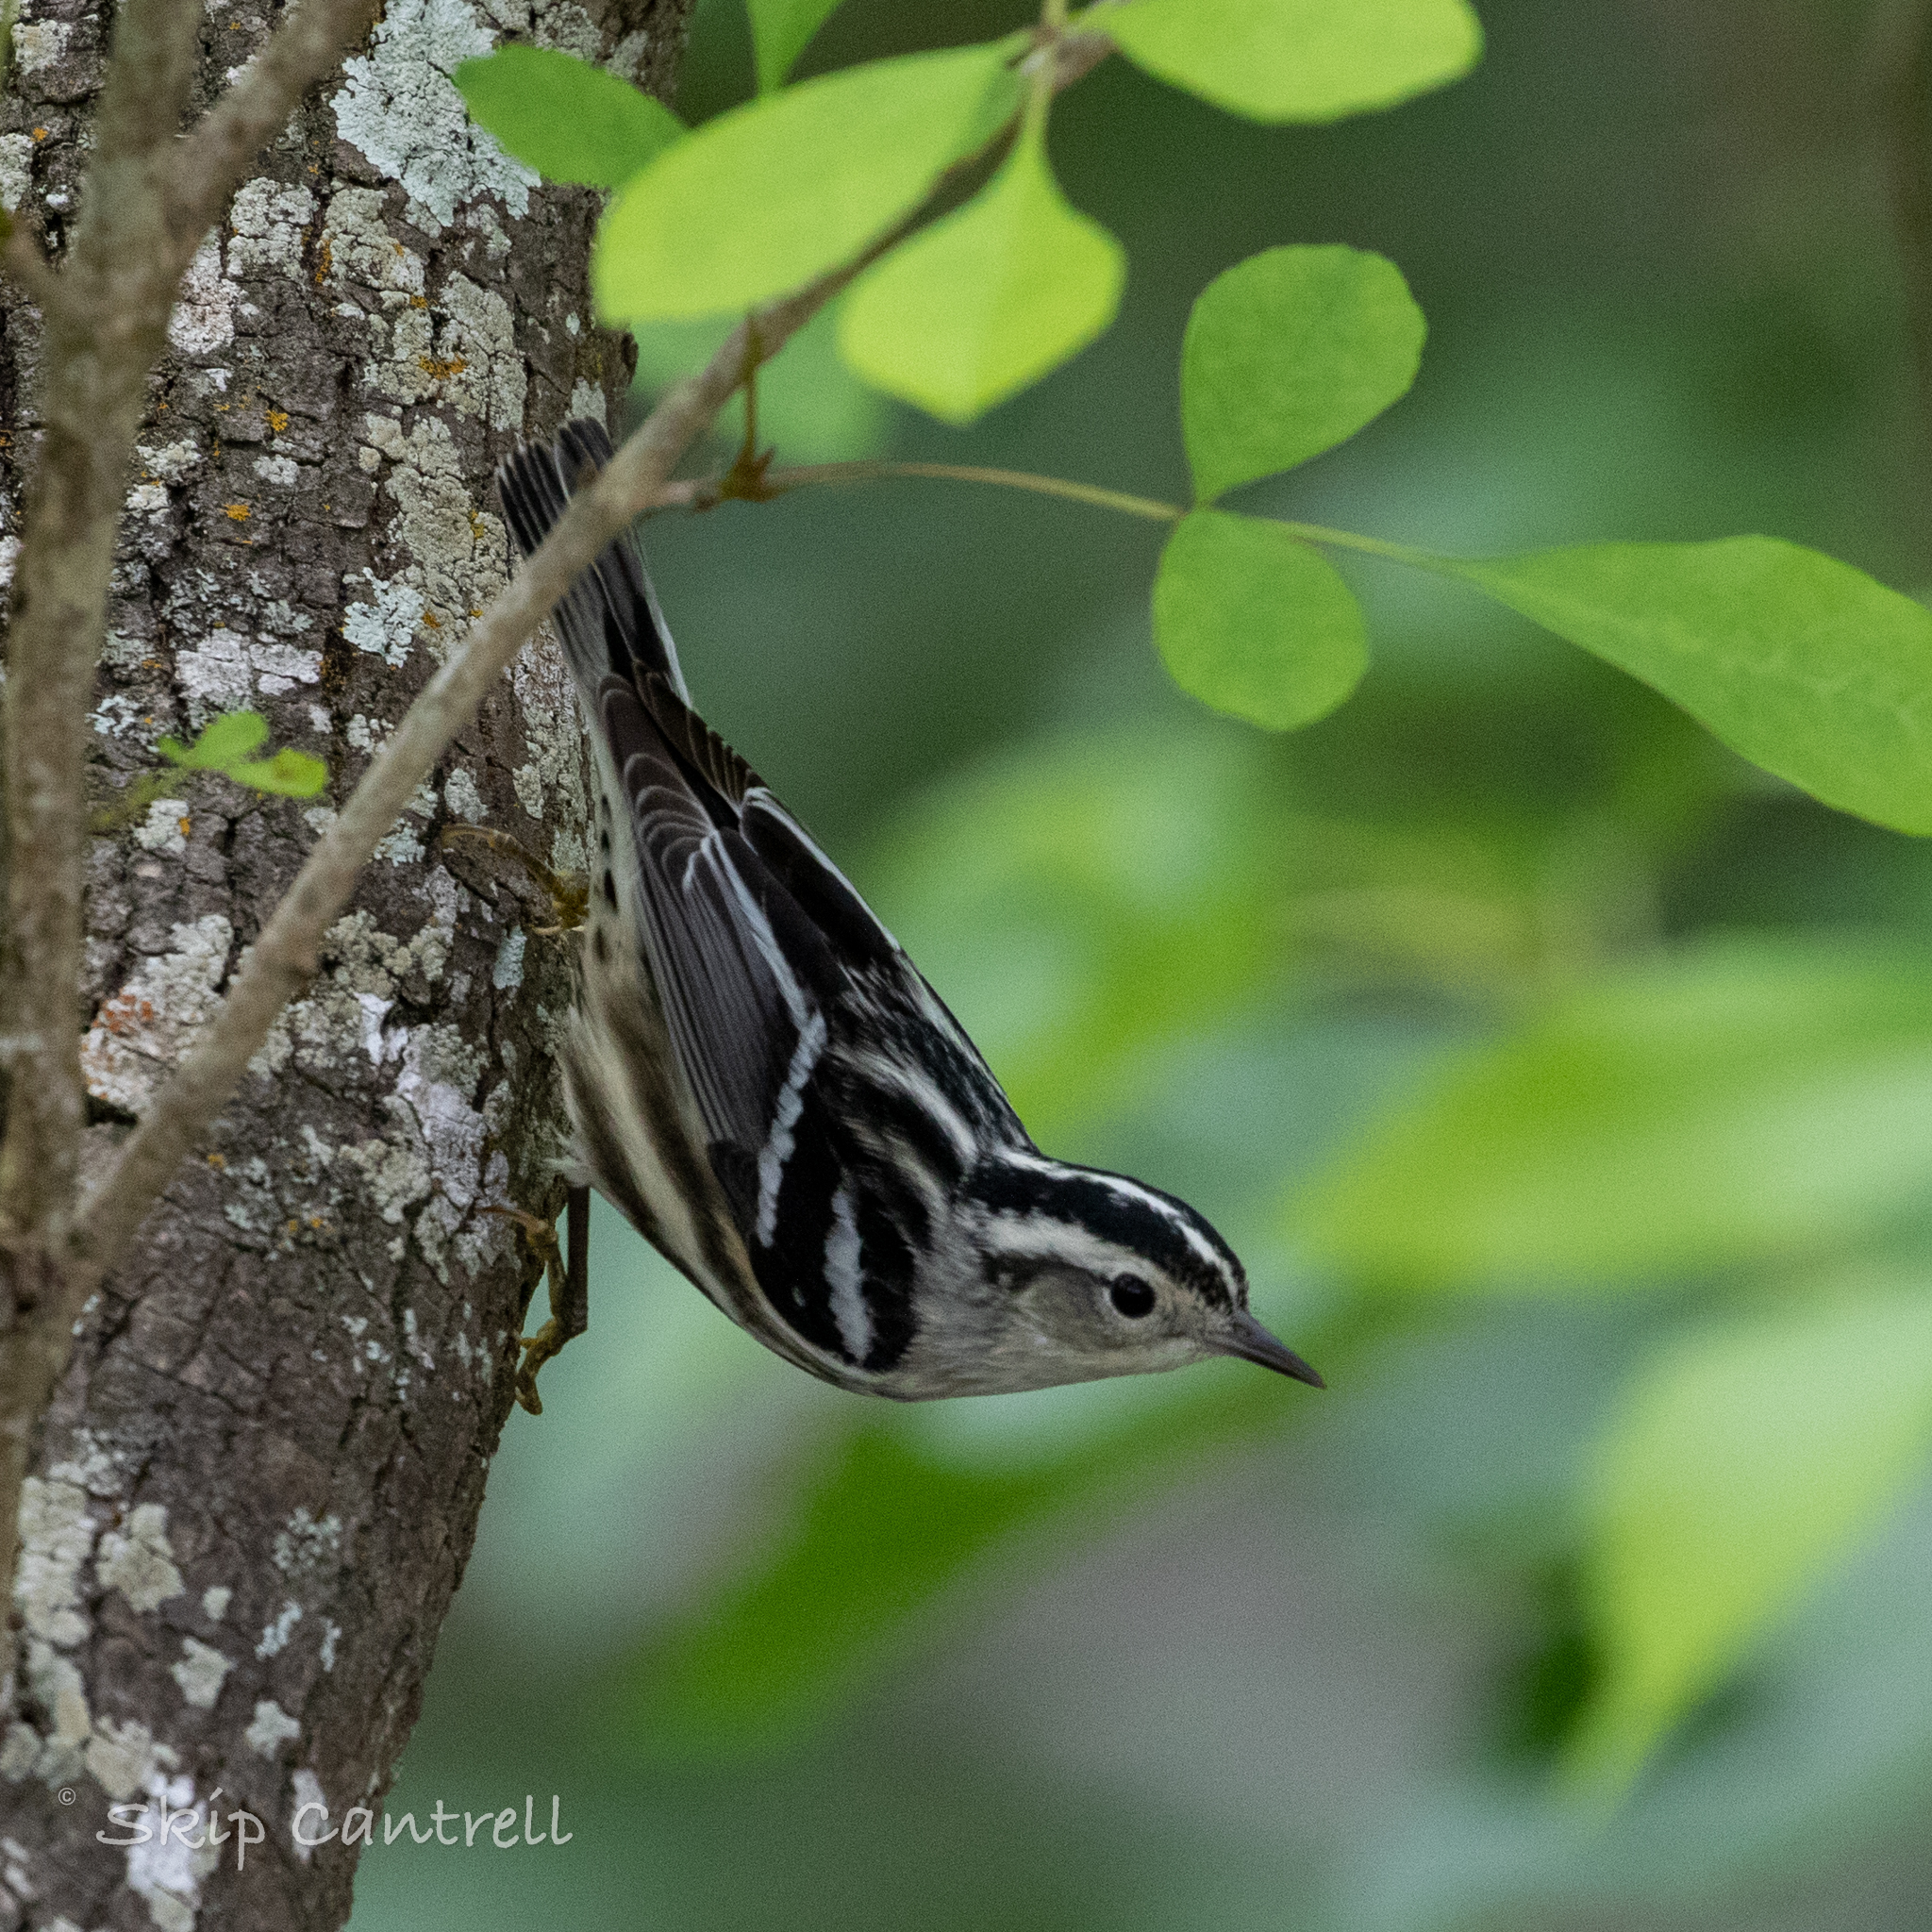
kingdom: Animalia
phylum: Chordata
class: Aves
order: Passeriformes
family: Parulidae
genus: Mniotilta
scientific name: Mniotilta varia
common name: Black-and-white warbler
